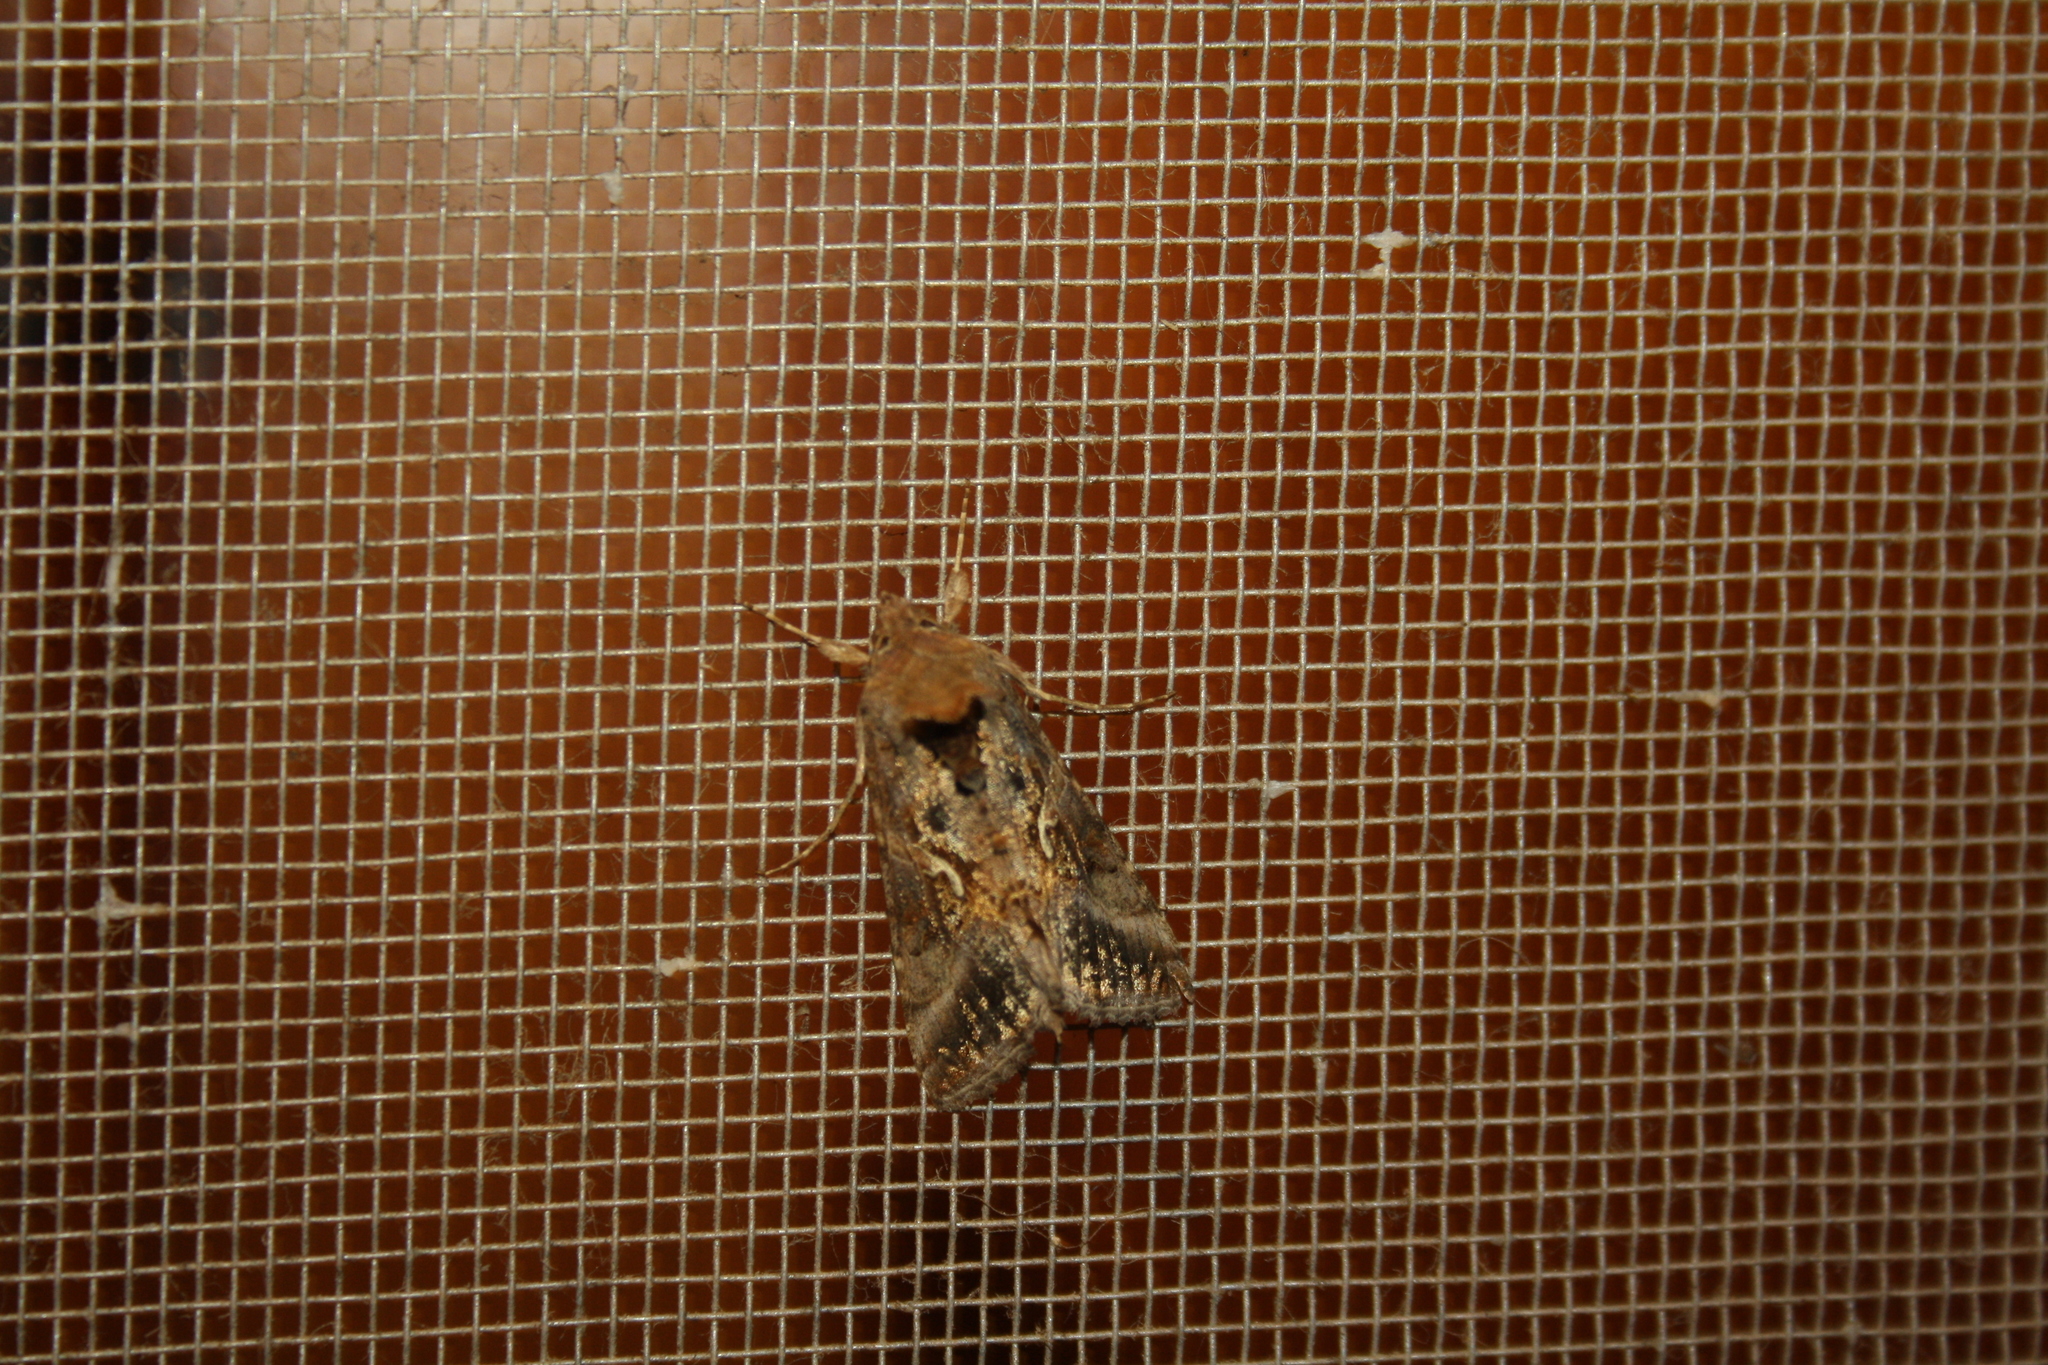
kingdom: Animalia
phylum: Arthropoda
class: Insecta
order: Lepidoptera
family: Noctuidae
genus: Trichoplusia
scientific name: Trichoplusia ni
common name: Ni moth
